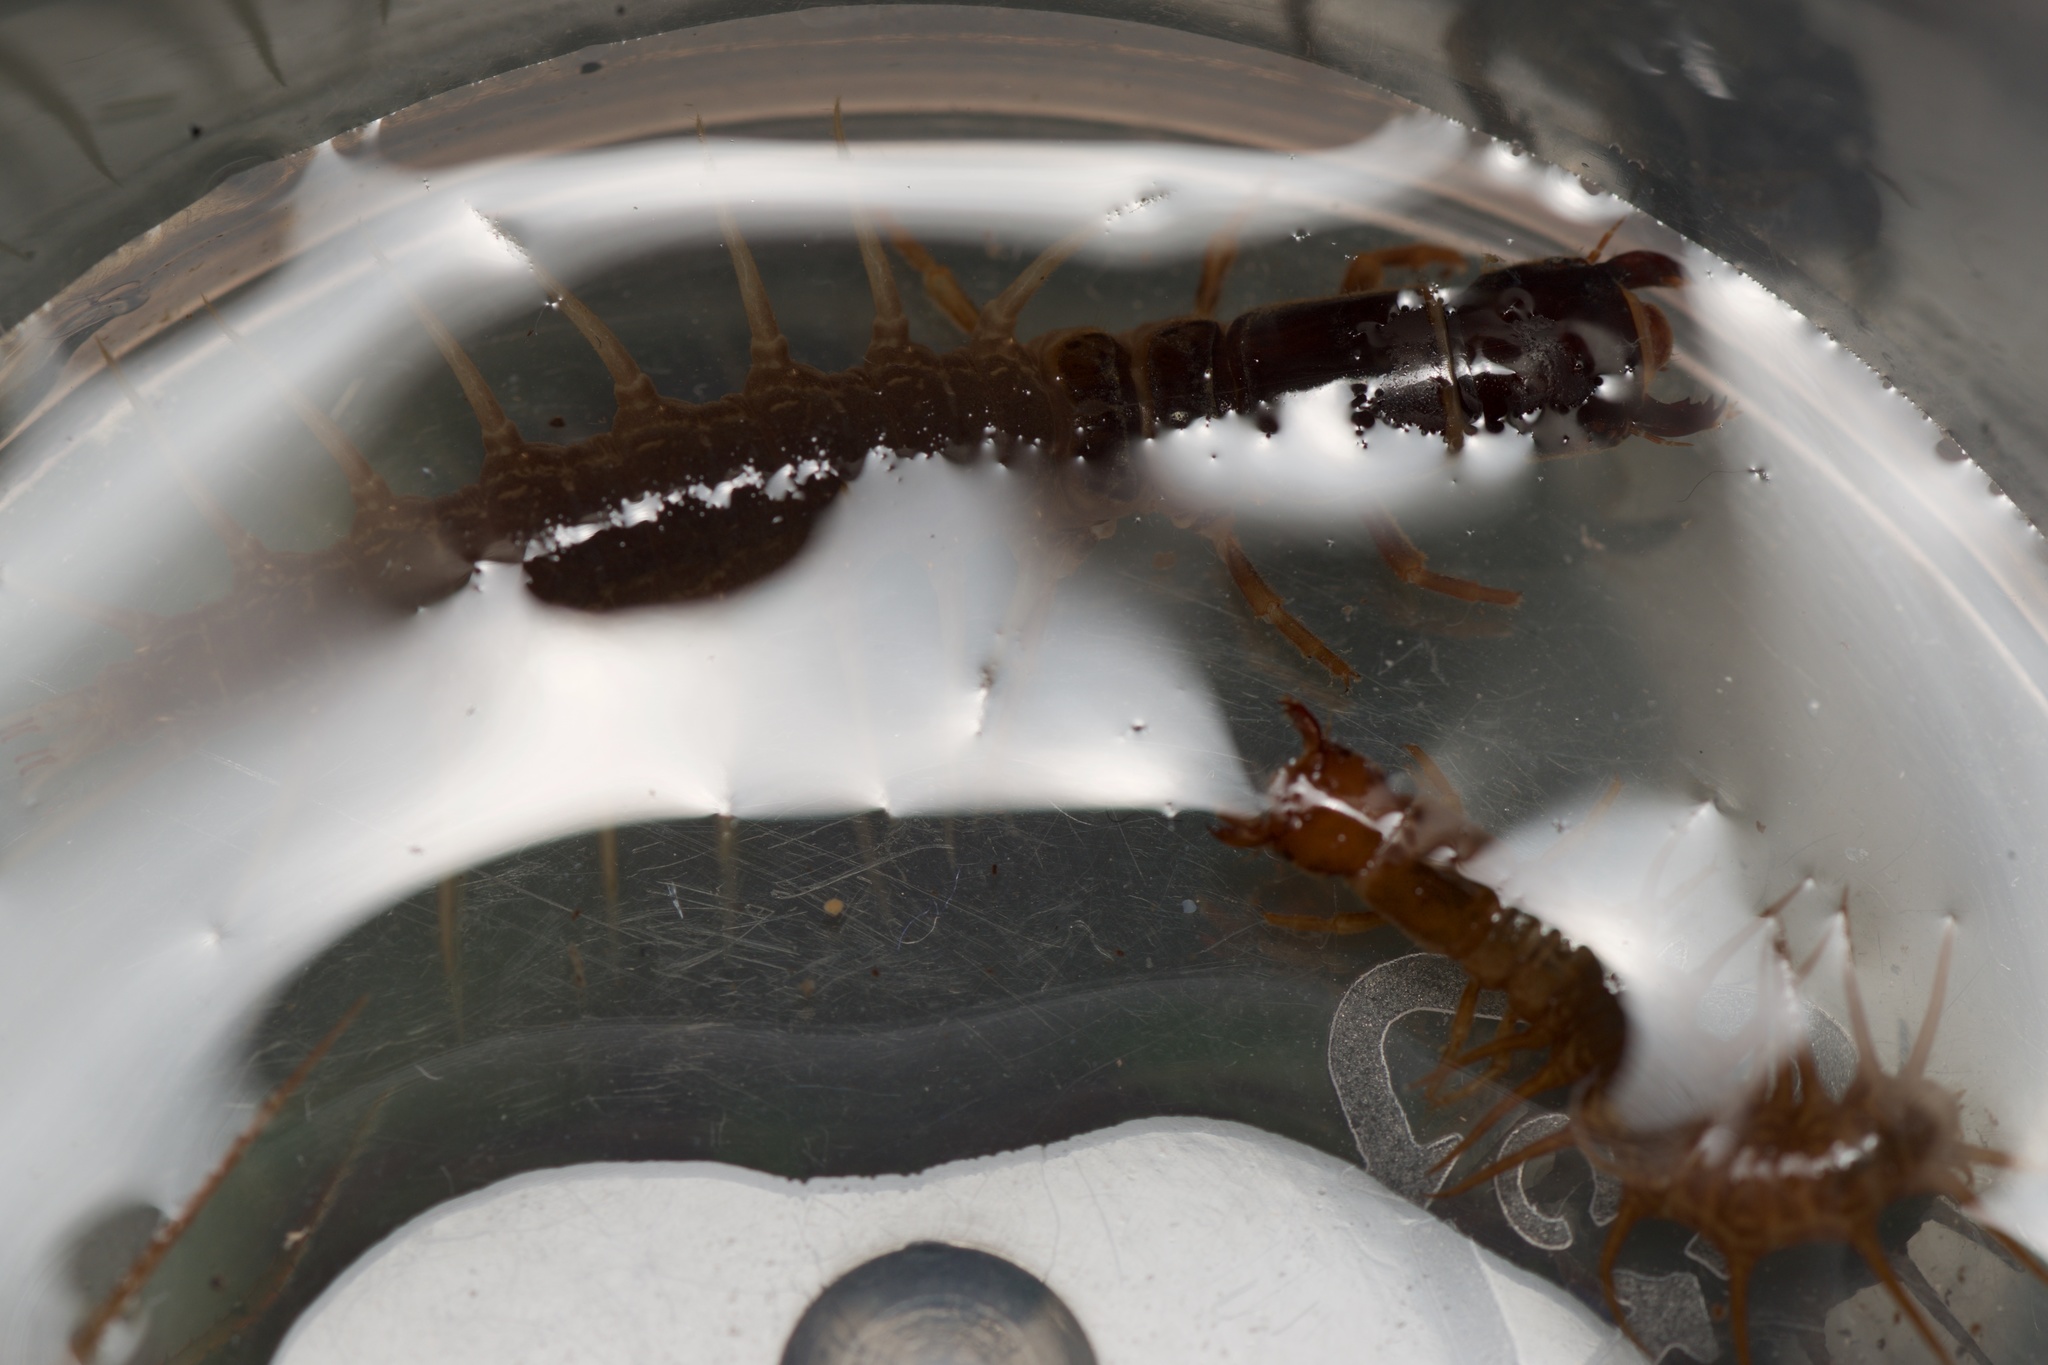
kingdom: Animalia
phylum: Arthropoda
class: Insecta
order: Megaloptera
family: Corydalidae
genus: Archichauliodes
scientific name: Archichauliodes diversus
